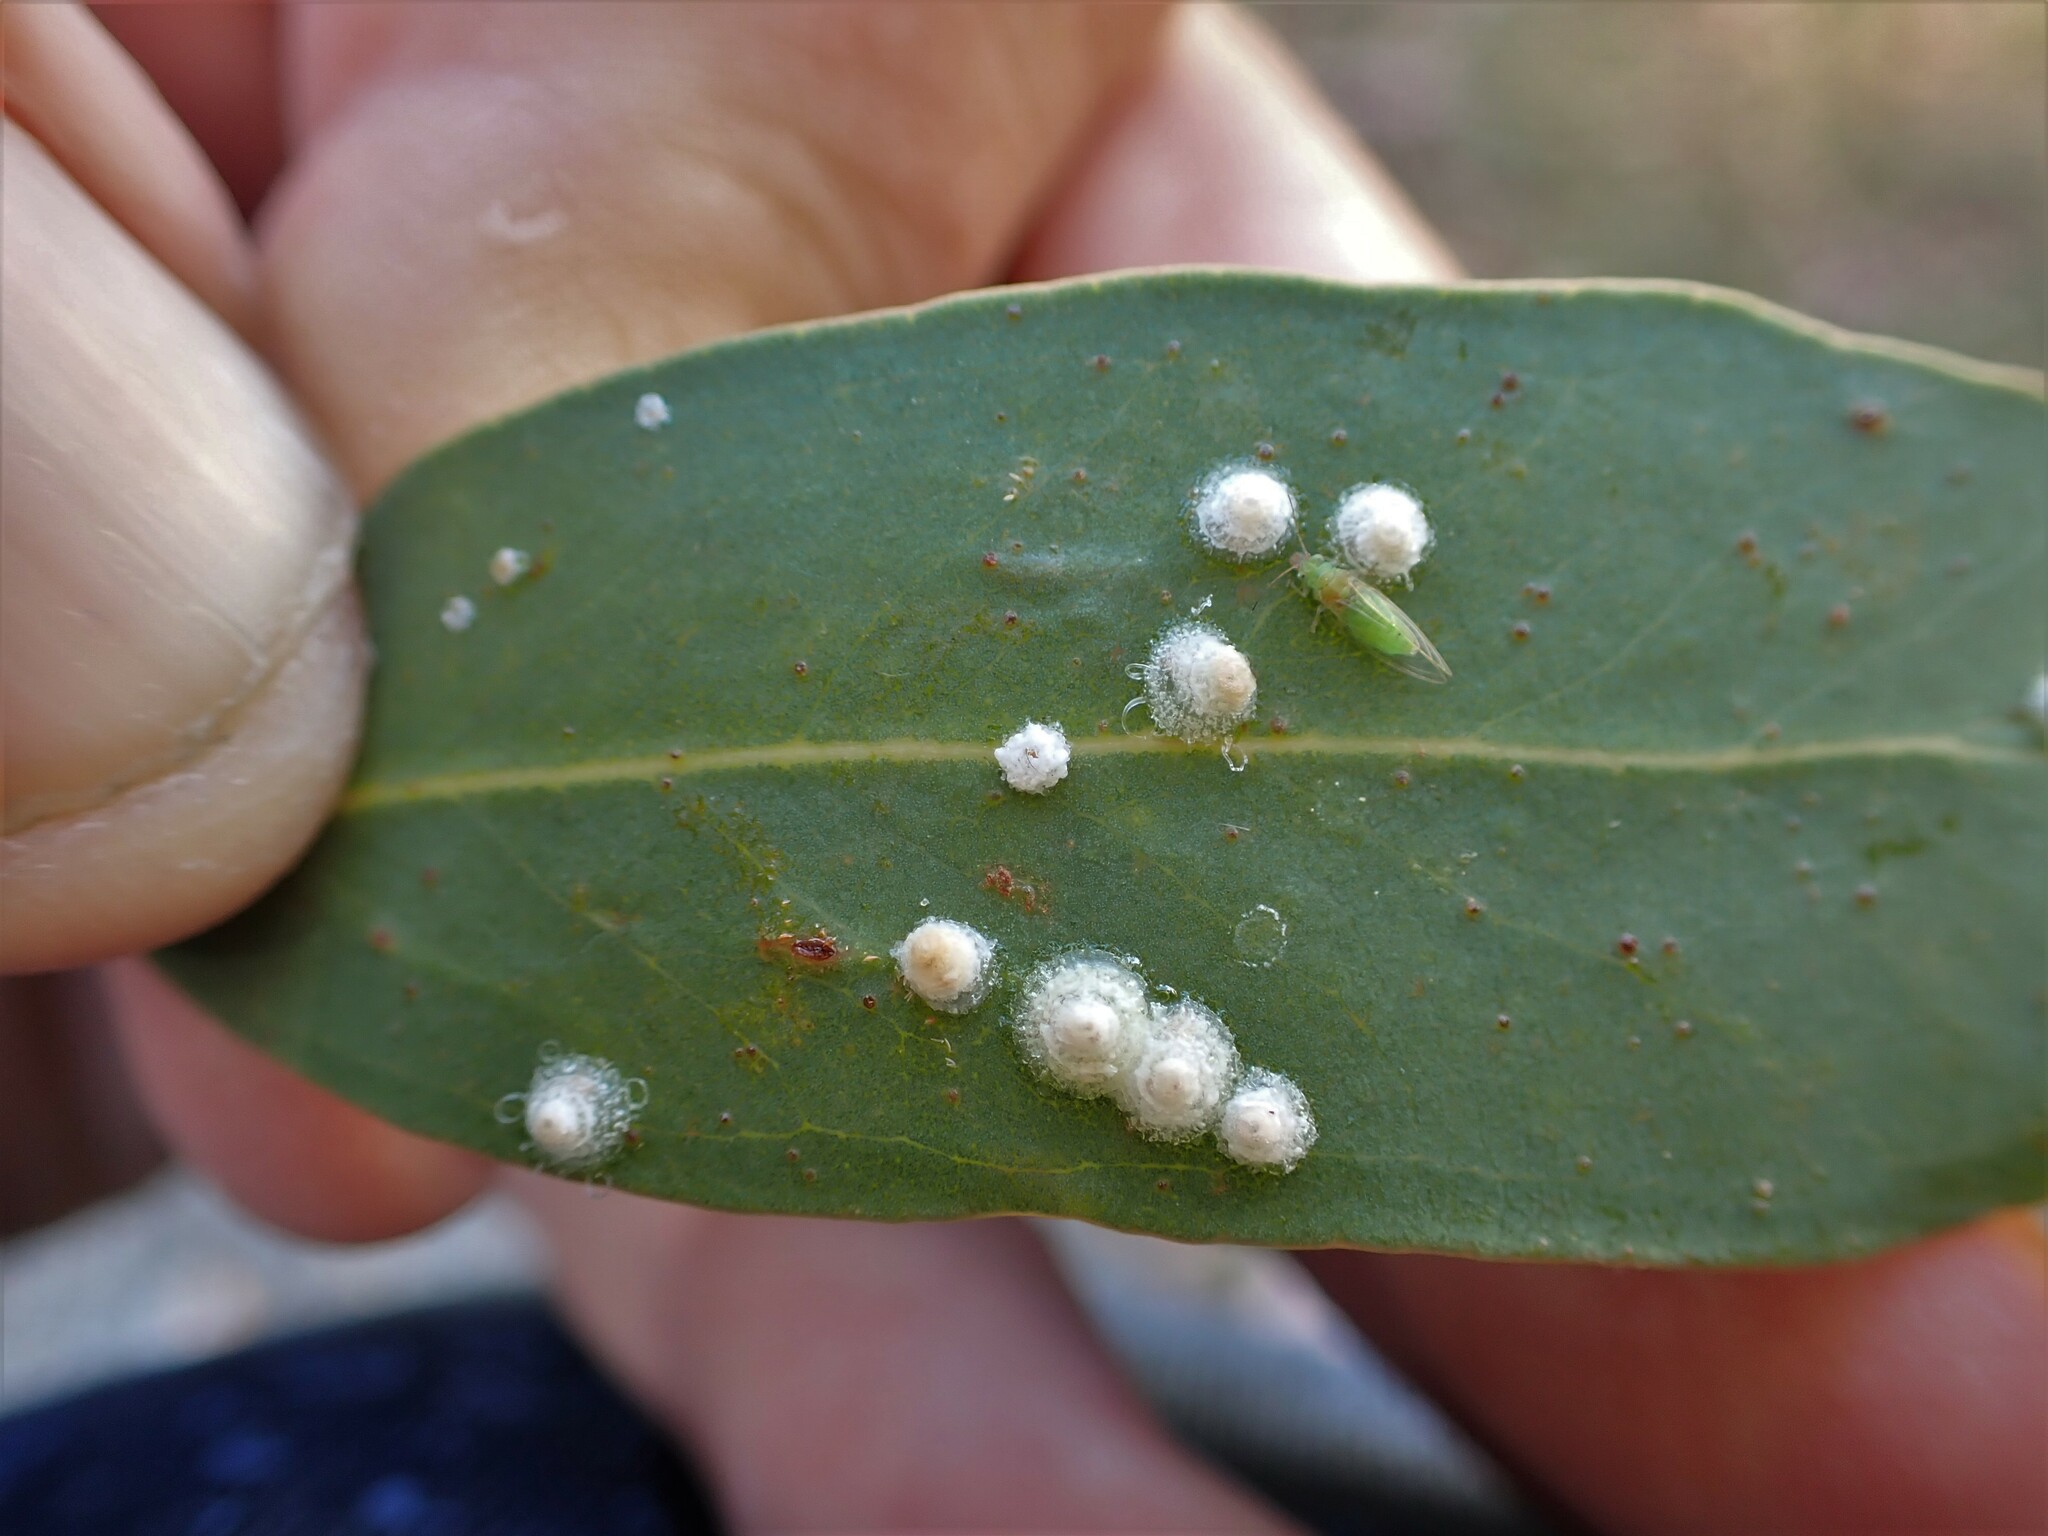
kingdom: Animalia
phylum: Arthropoda
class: Insecta
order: Hemiptera
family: Aphalaridae
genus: Glycaspis
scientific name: Glycaspis brimblecombei
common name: Red gum lerp psyllid
